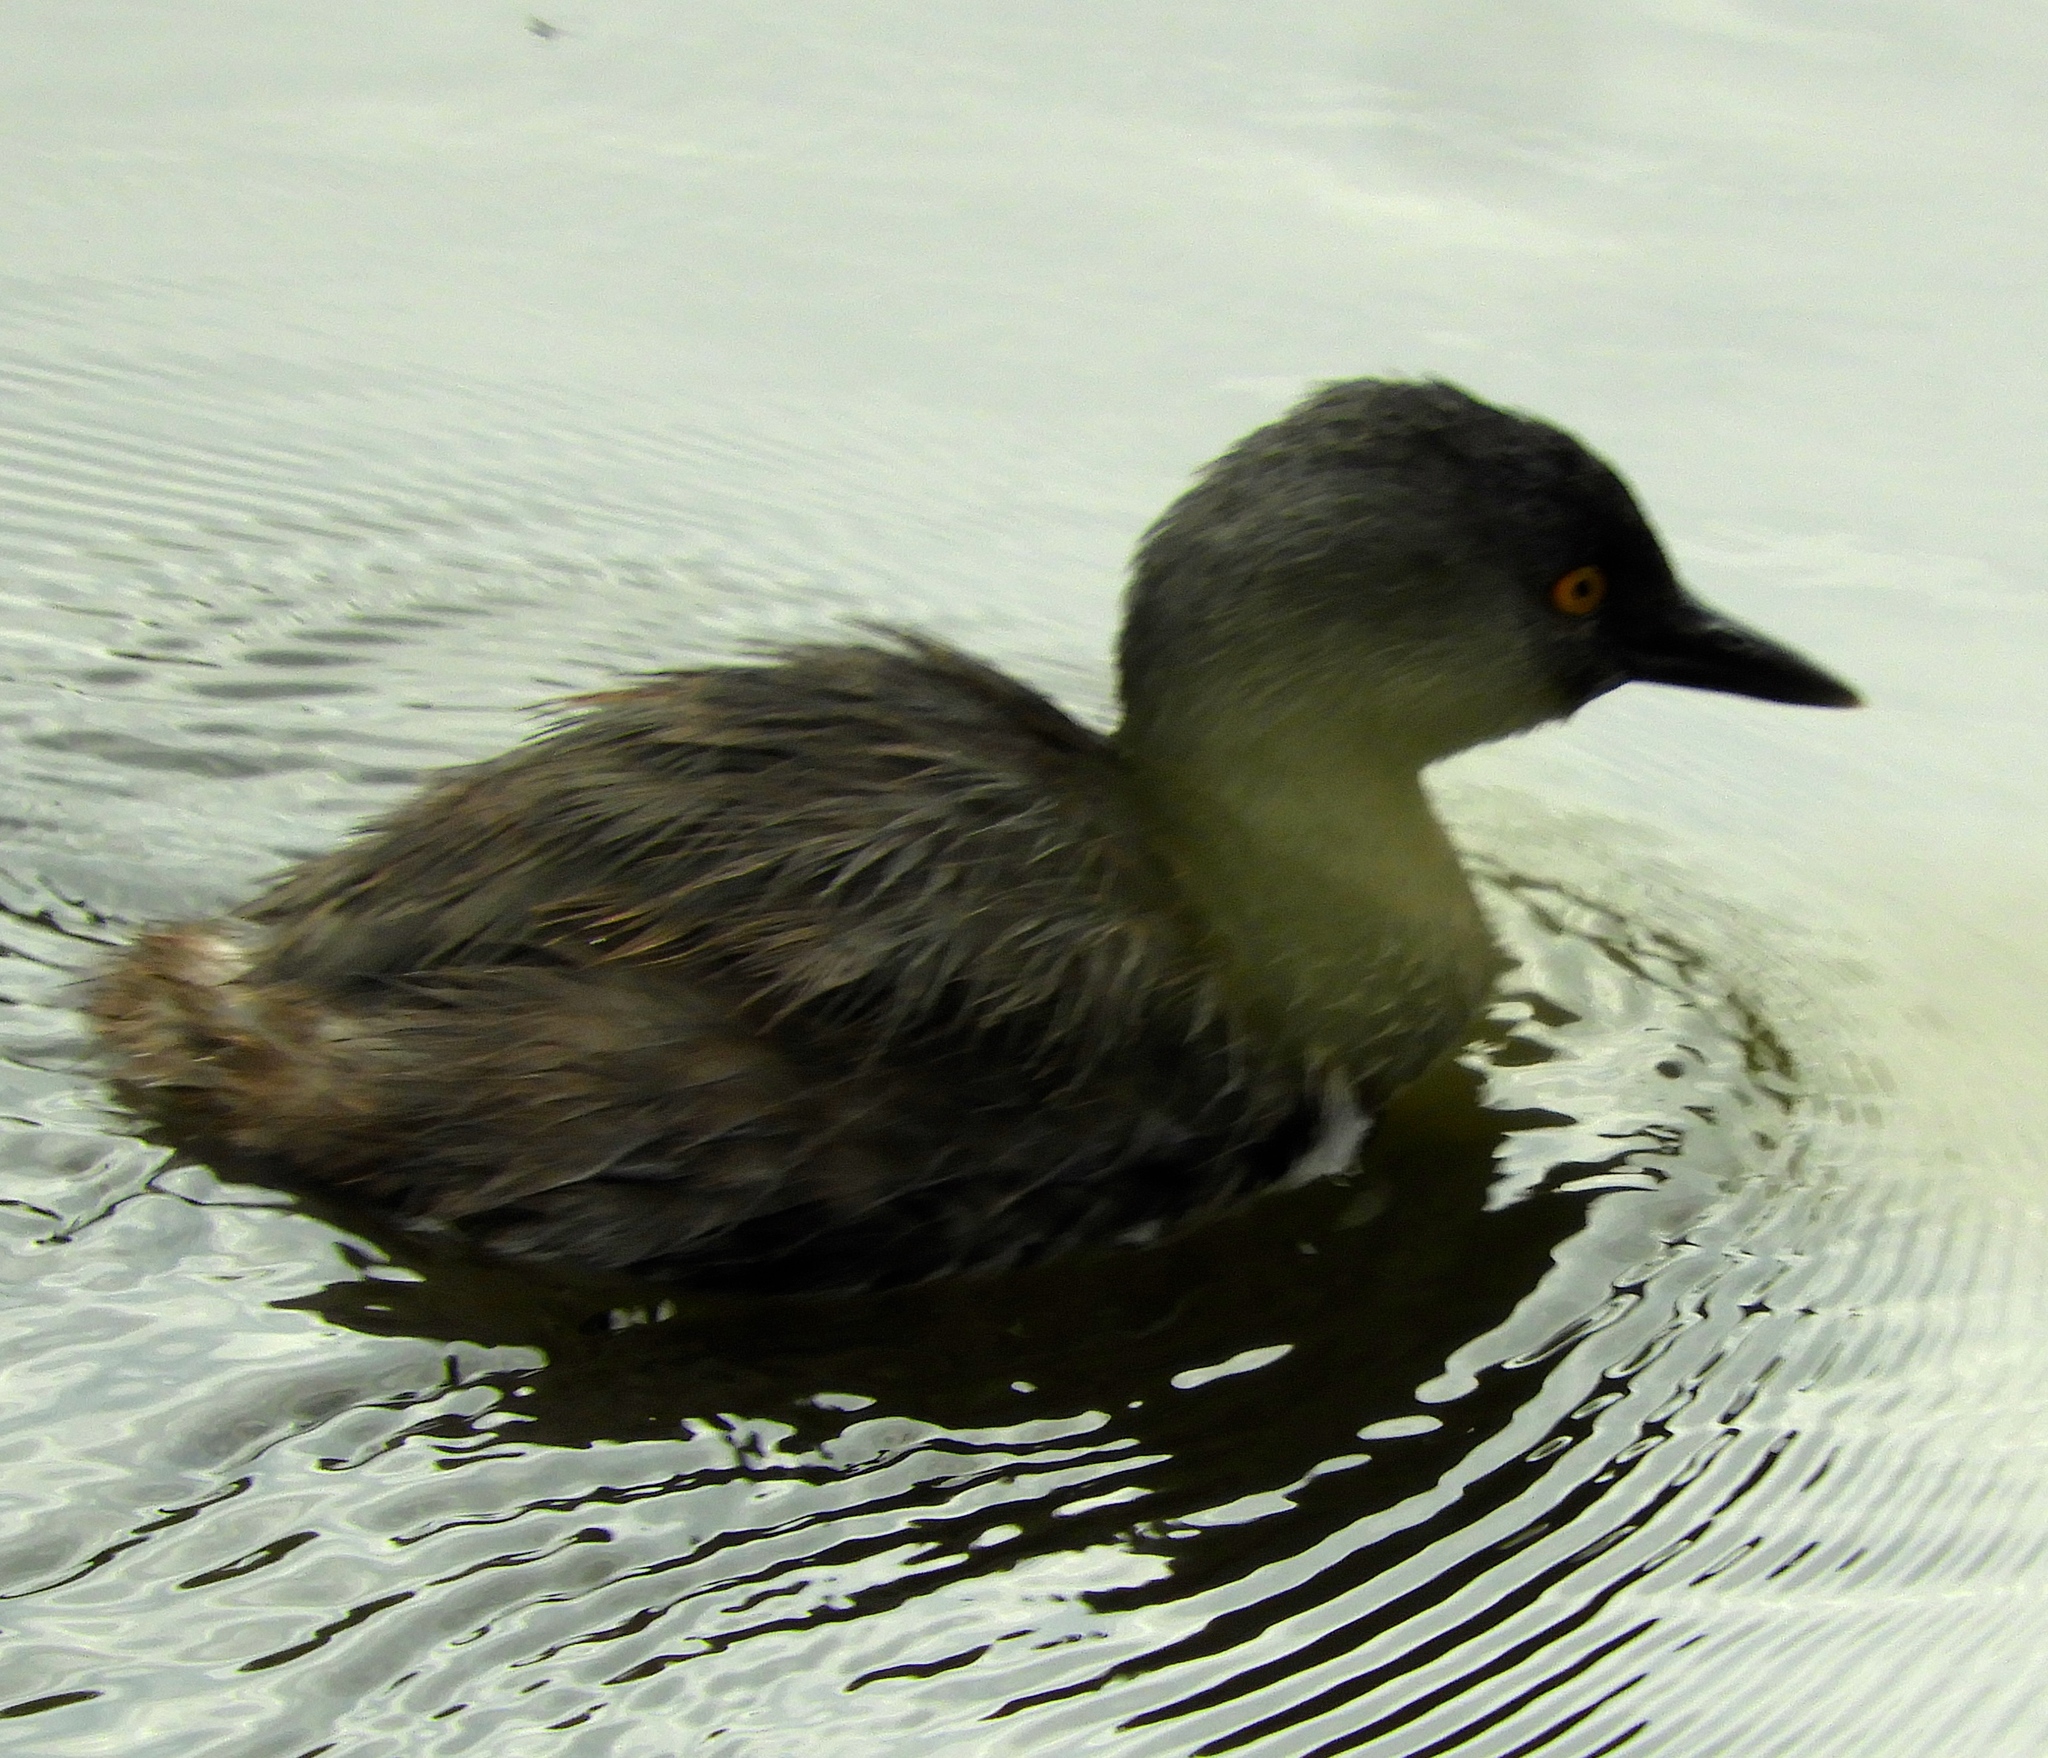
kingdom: Animalia
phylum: Chordata
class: Aves
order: Podicipediformes
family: Podicipedidae
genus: Tachybaptus
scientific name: Tachybaptus dominicus
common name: Least grebe
